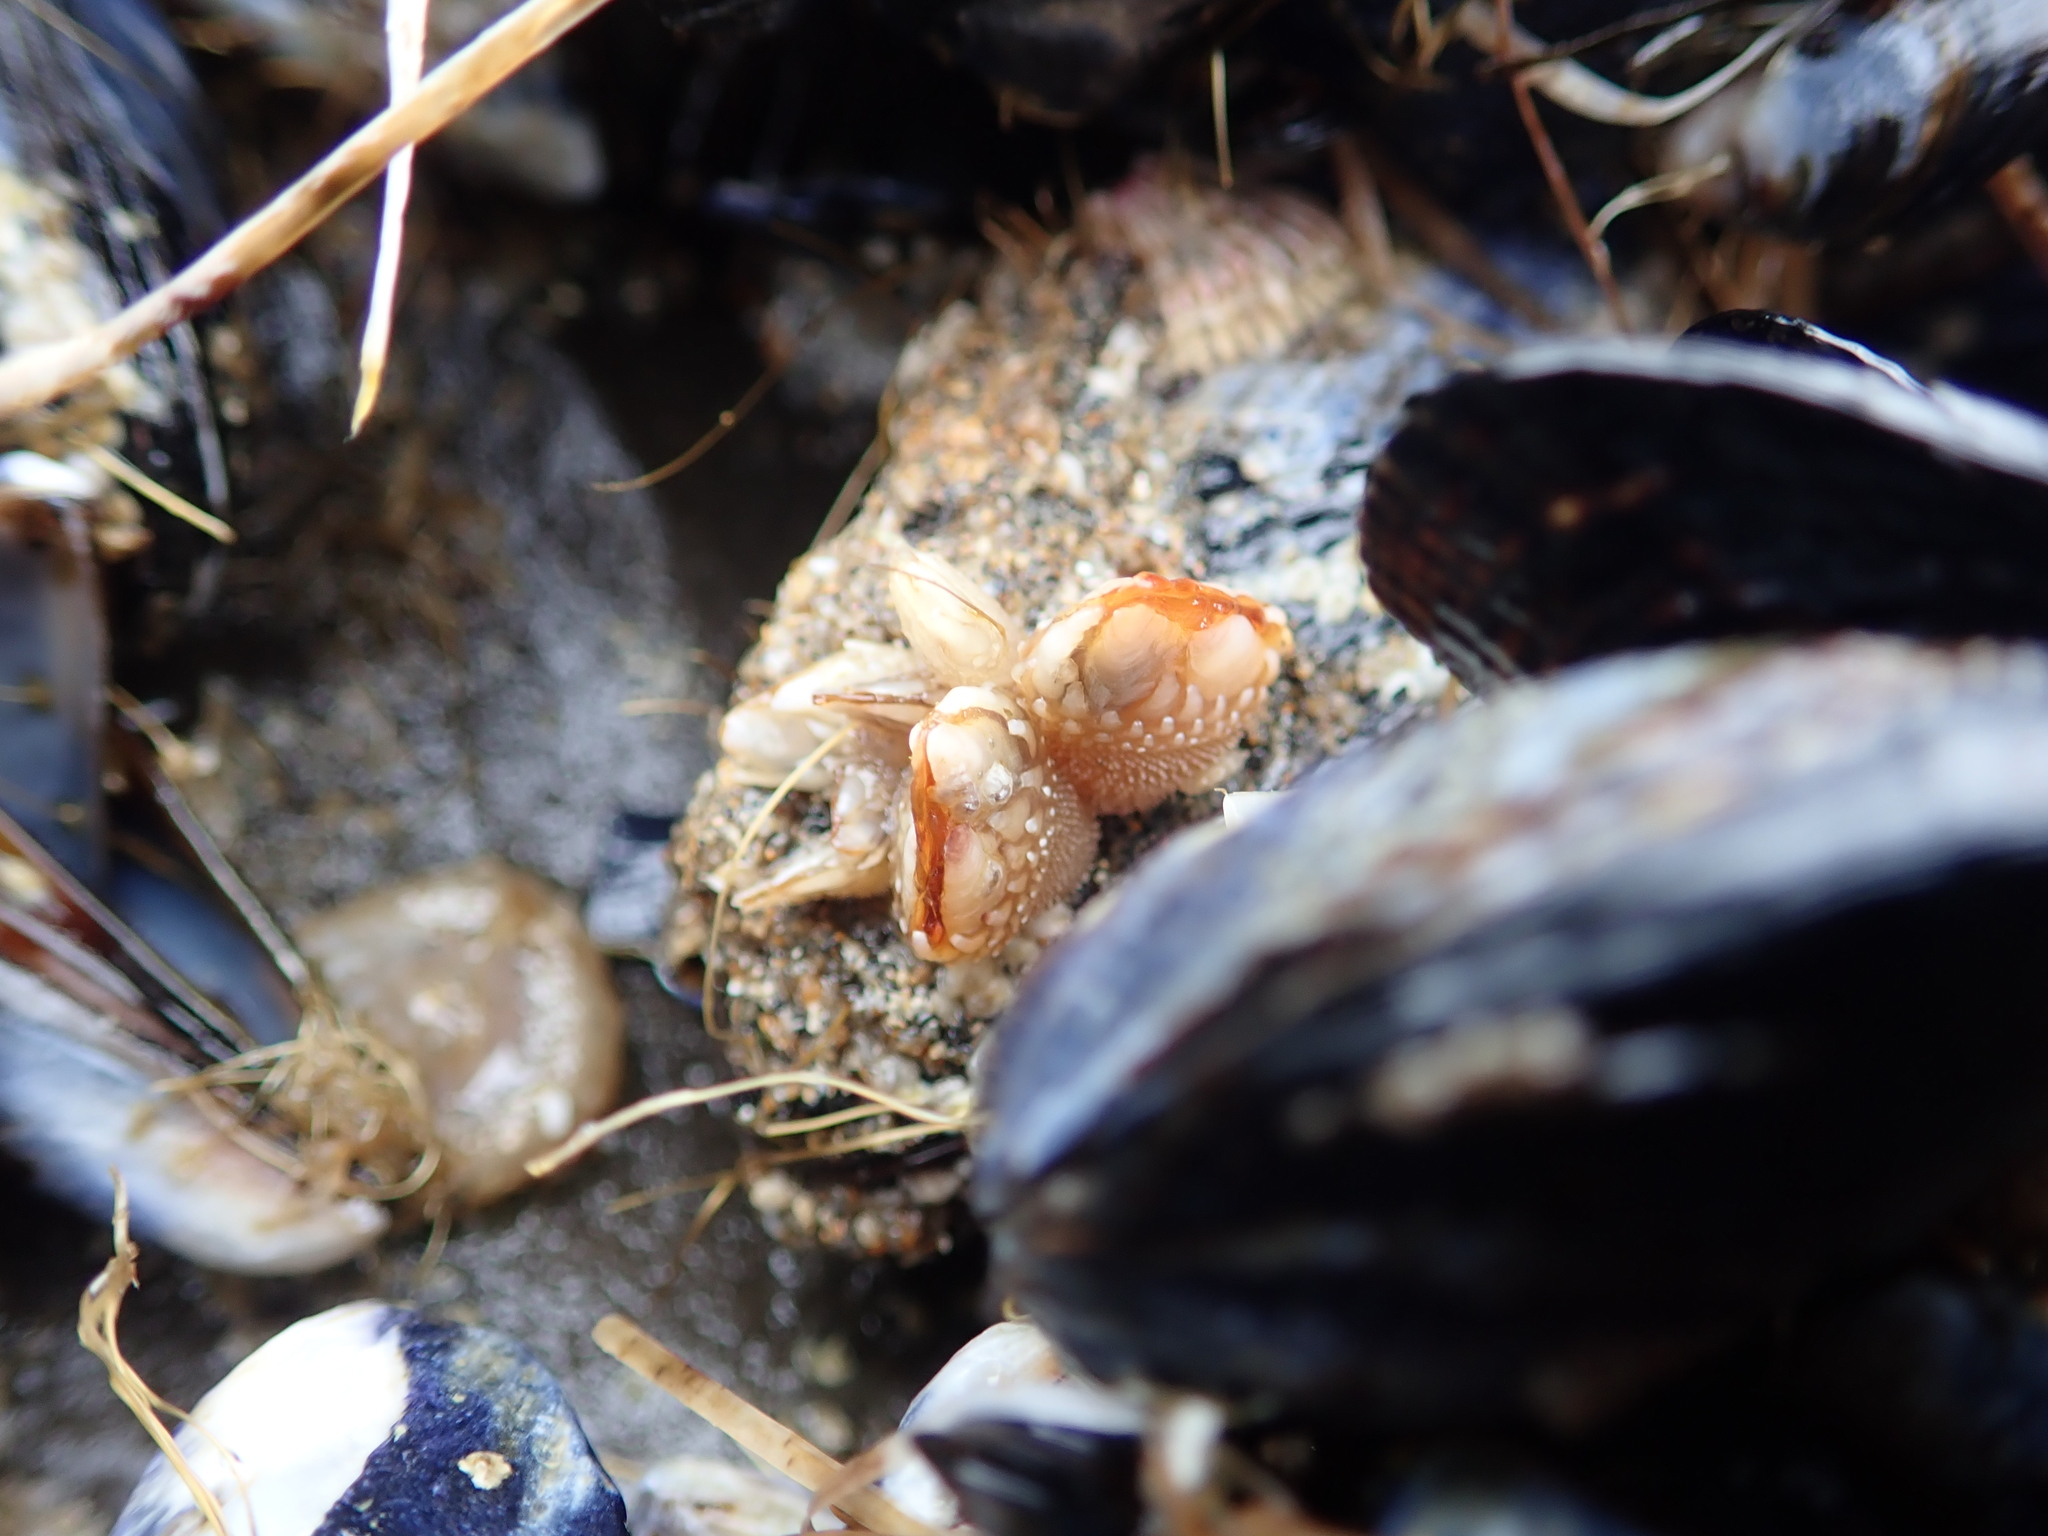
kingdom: Animalia
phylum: Arthropoda
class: Maxillopoda
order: Pedunculata
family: Pollicipedidae
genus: Pollicipes
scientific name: Pollicipes polymerus
